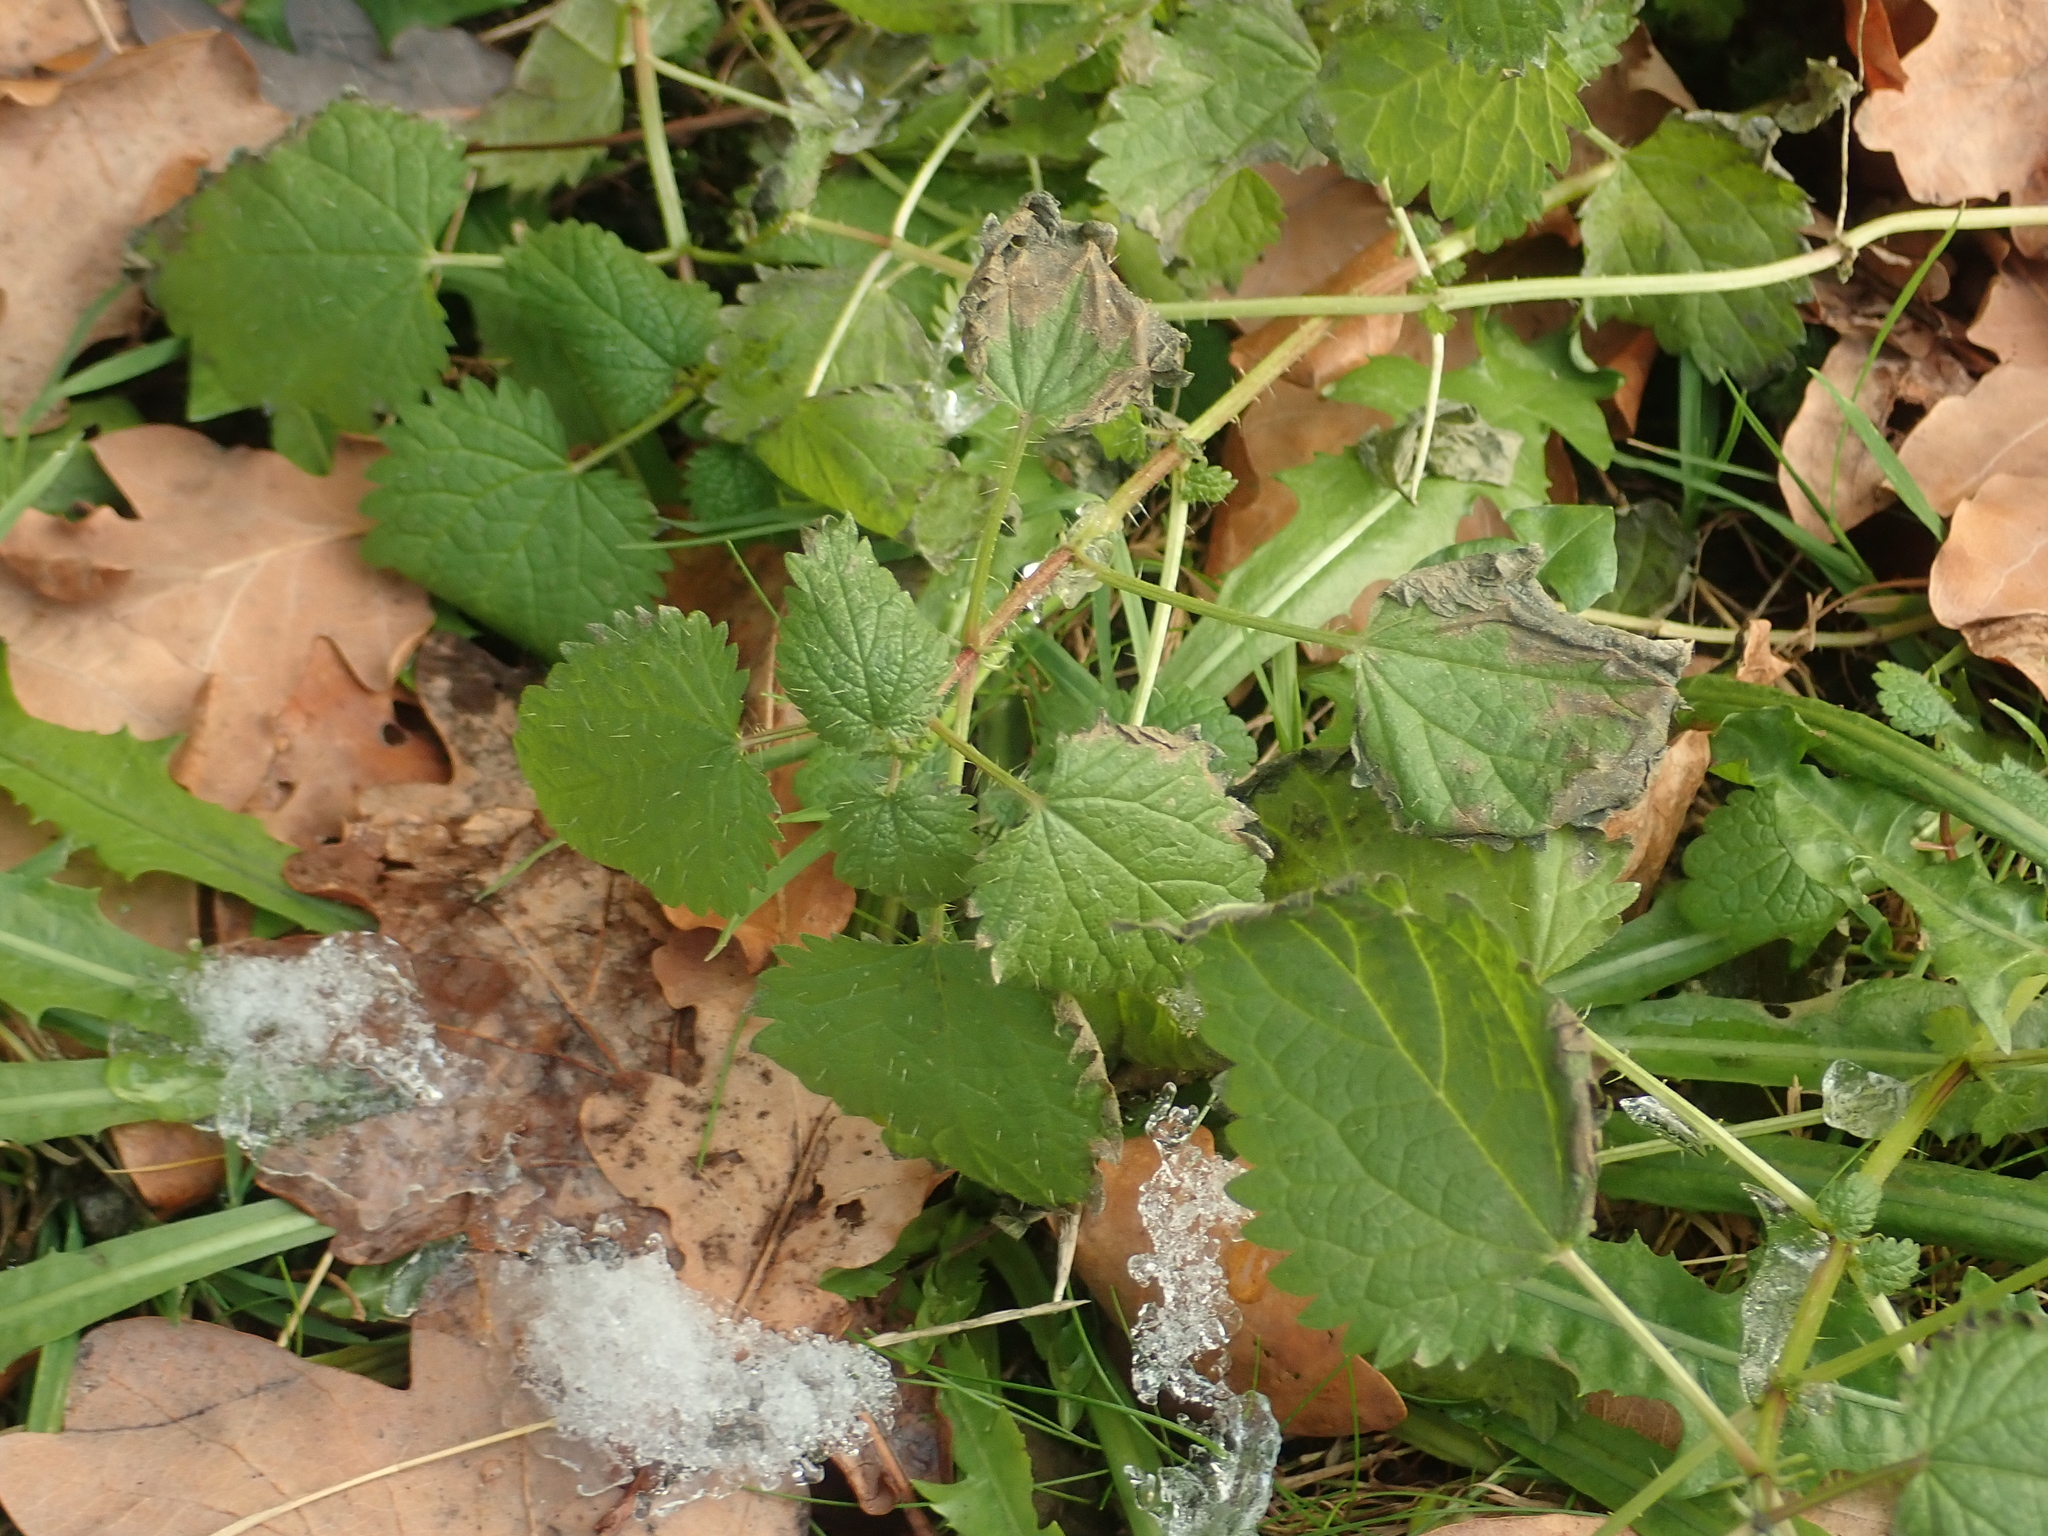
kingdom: Plantae
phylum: Tracheophyta
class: Magnoliopsida
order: Rosales
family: Urticaceae
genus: Urtica
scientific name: Urtica dioica
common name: Common nettle
